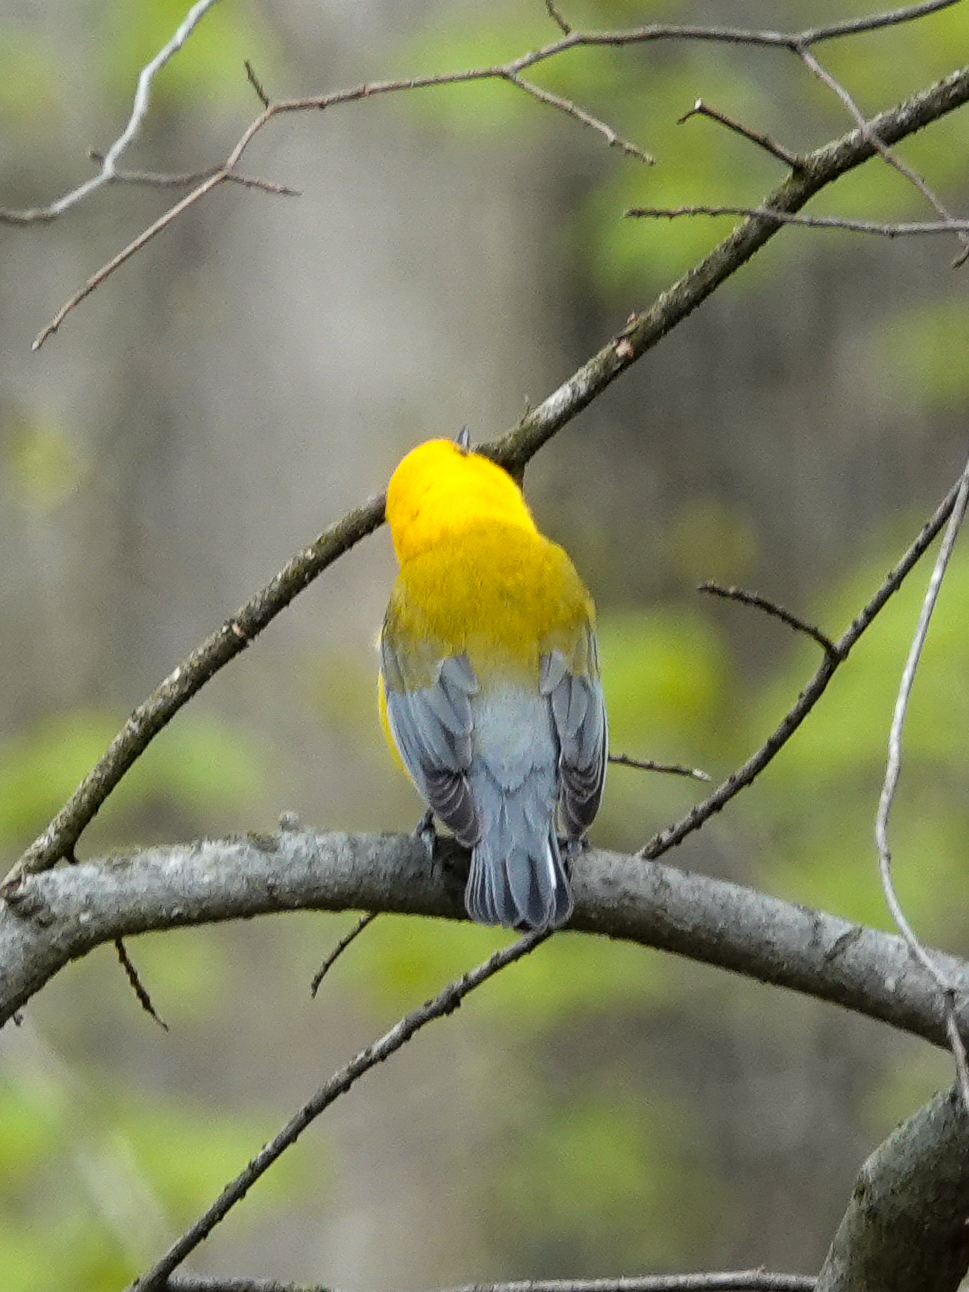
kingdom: Animalia
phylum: Chordata
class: Aves
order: Passeriformes
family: Parulidae
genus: Protonotaria
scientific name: Protonotaria citrea
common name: Prothonotary warbler
